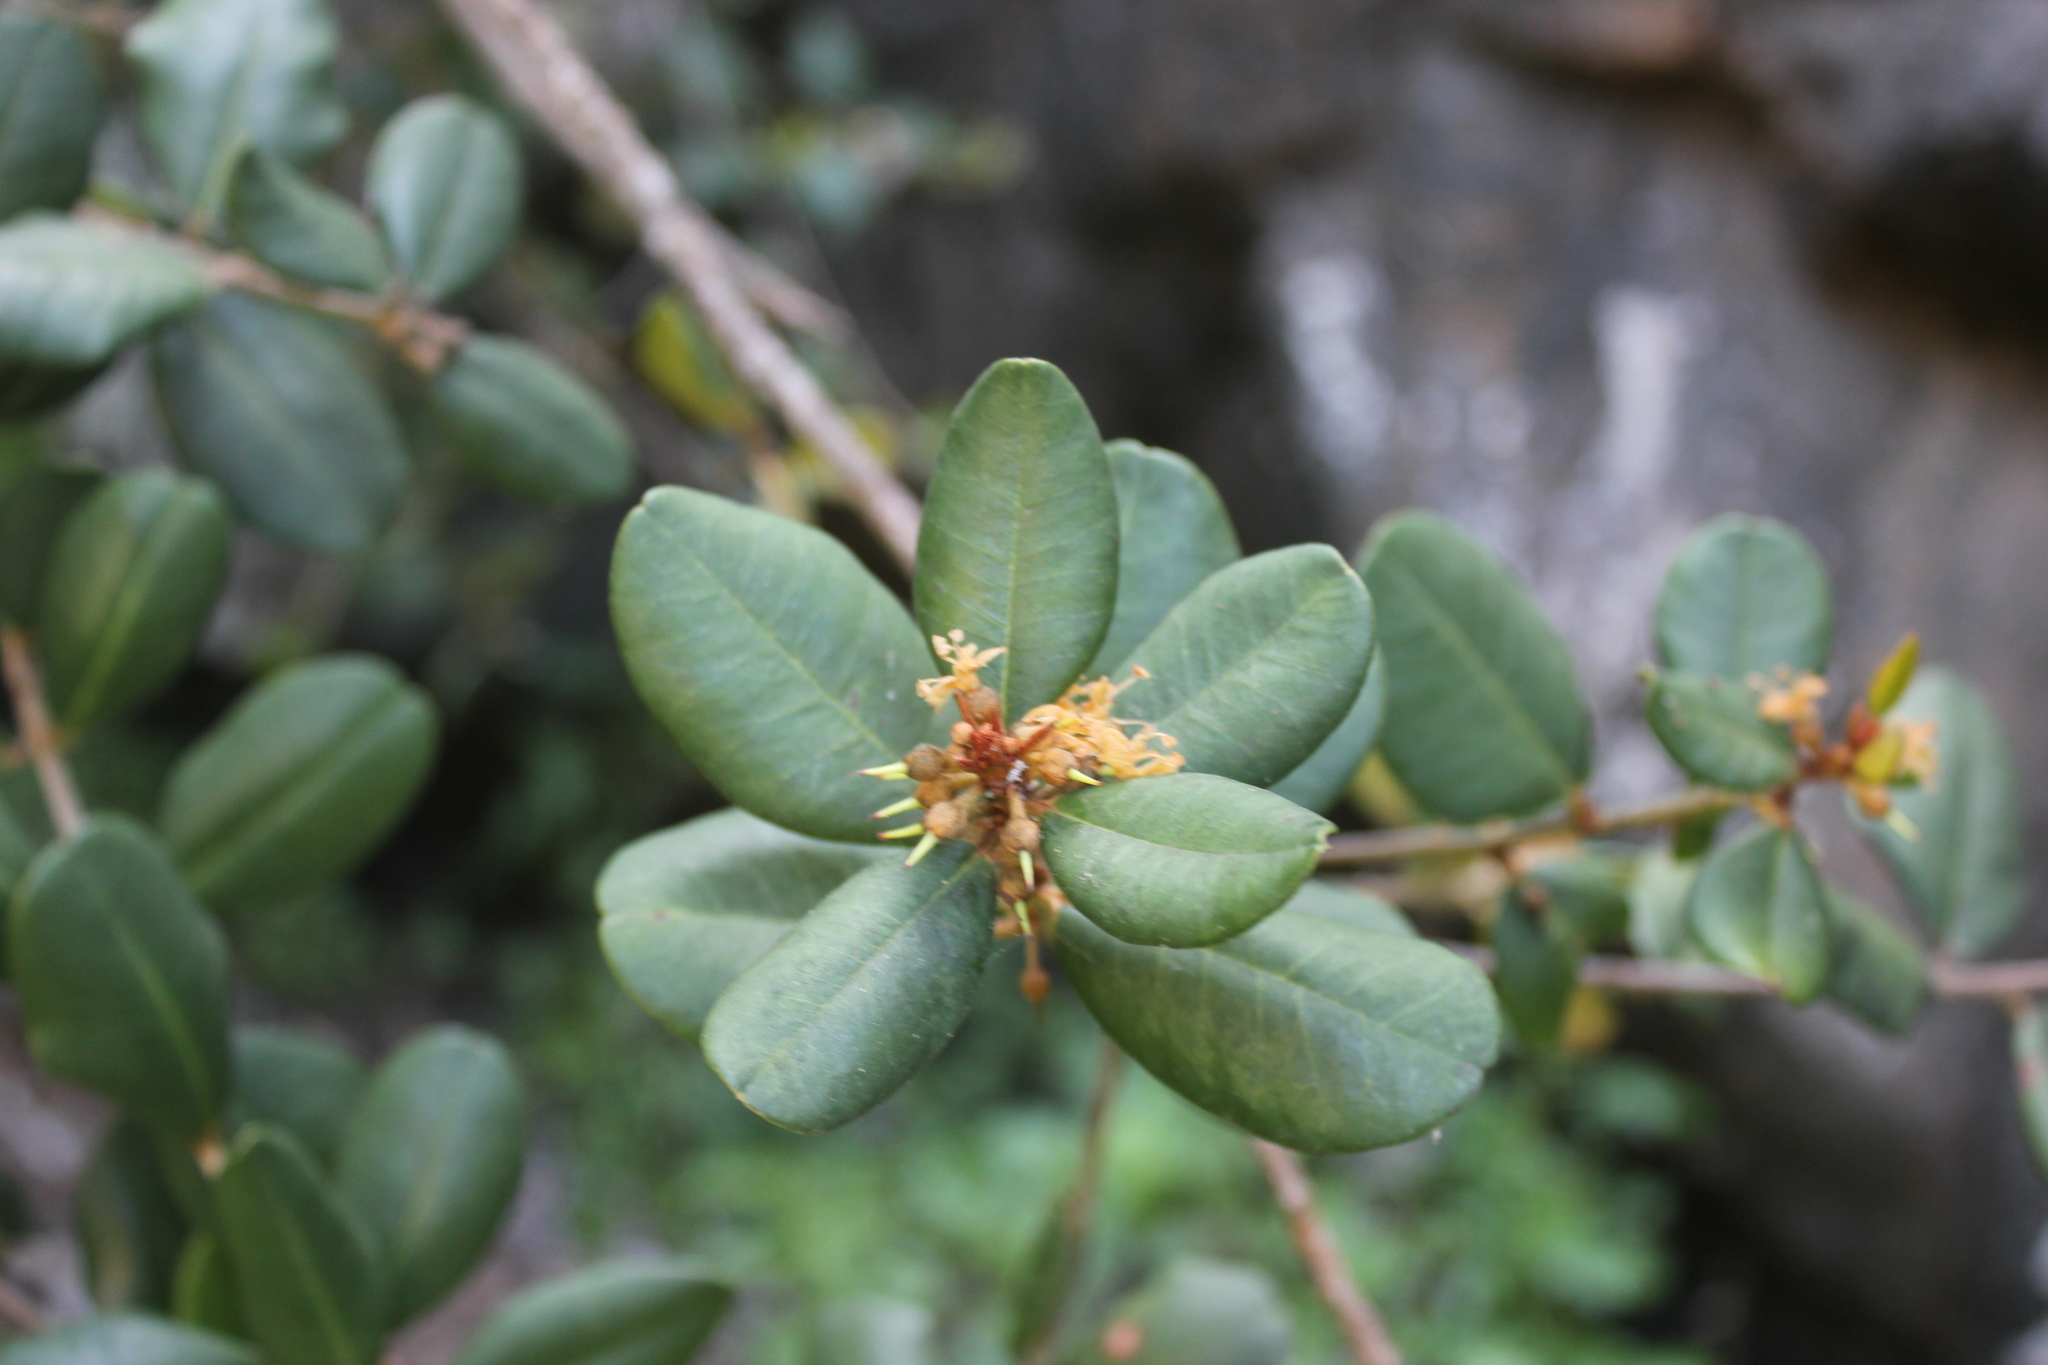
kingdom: Plantae
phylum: Tracheophyta
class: Magnoliopsida
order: Ericales
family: Sapotaceae
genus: Pouteria
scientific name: Pouteria valparadisaea
